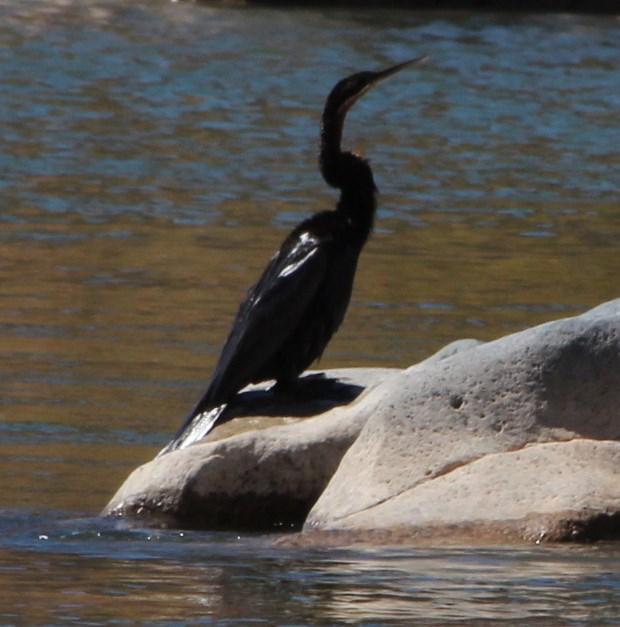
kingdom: Animalia
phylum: Chordata
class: Aves
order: Suliformes
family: Anhingidae
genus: Anhinga
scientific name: Anhinga rufa
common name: African darter
